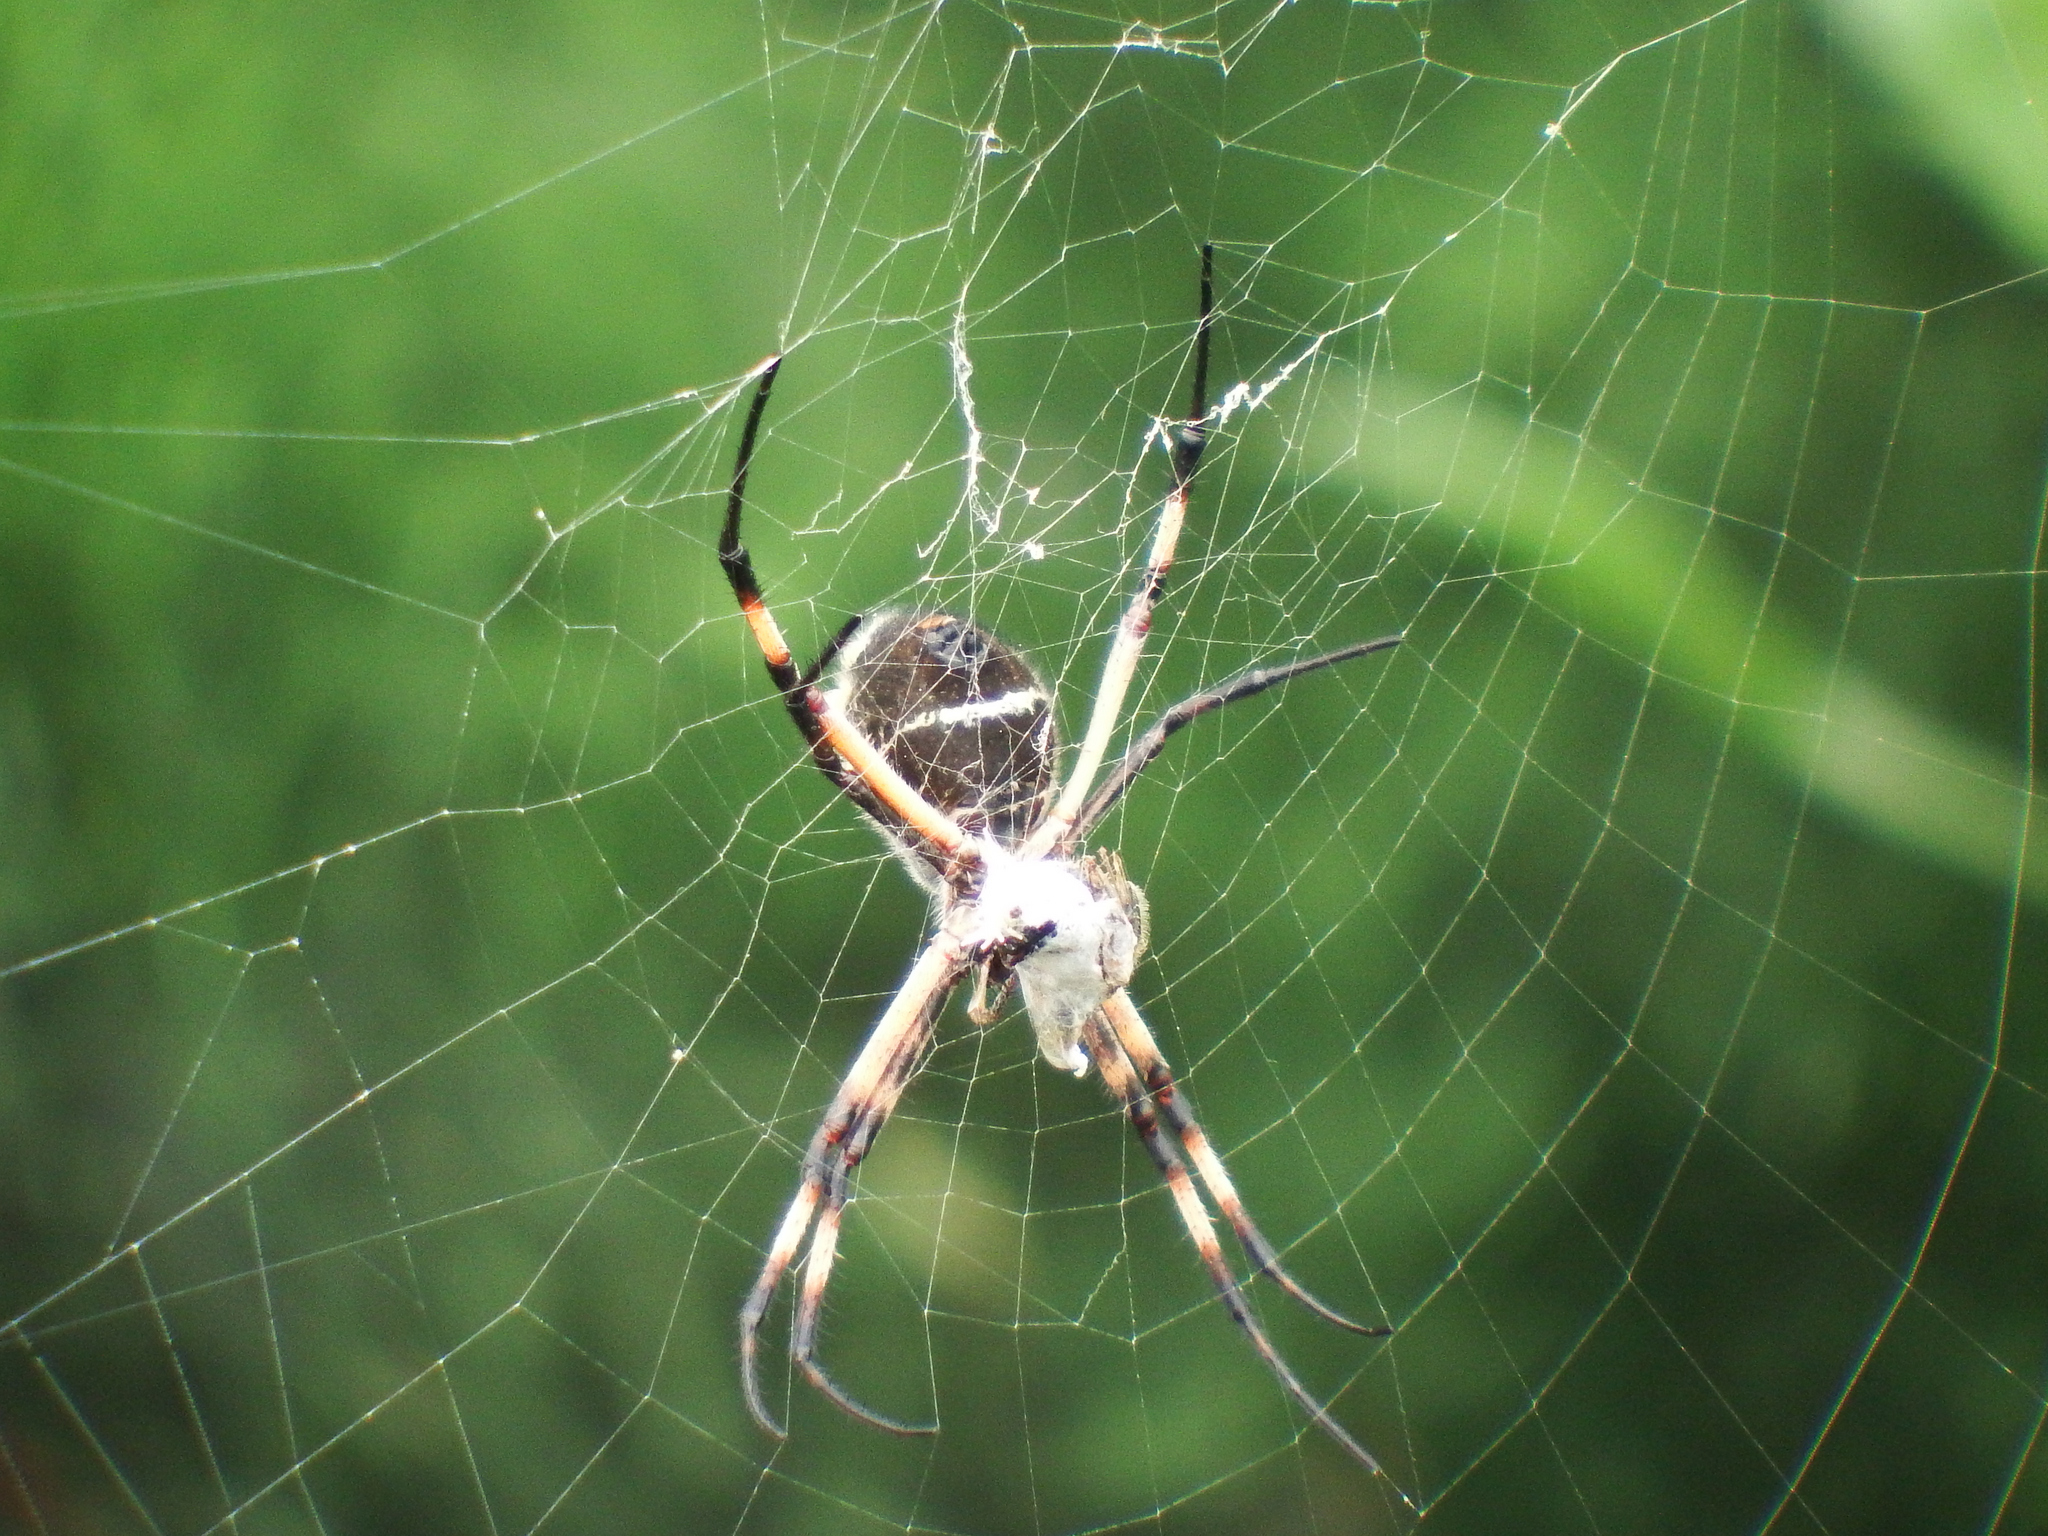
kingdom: Animalia
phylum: Arthropoda
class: Arachnida
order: Araneae
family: Araneidae
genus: Argiope
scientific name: Argiope argentata
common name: Orb weavers
